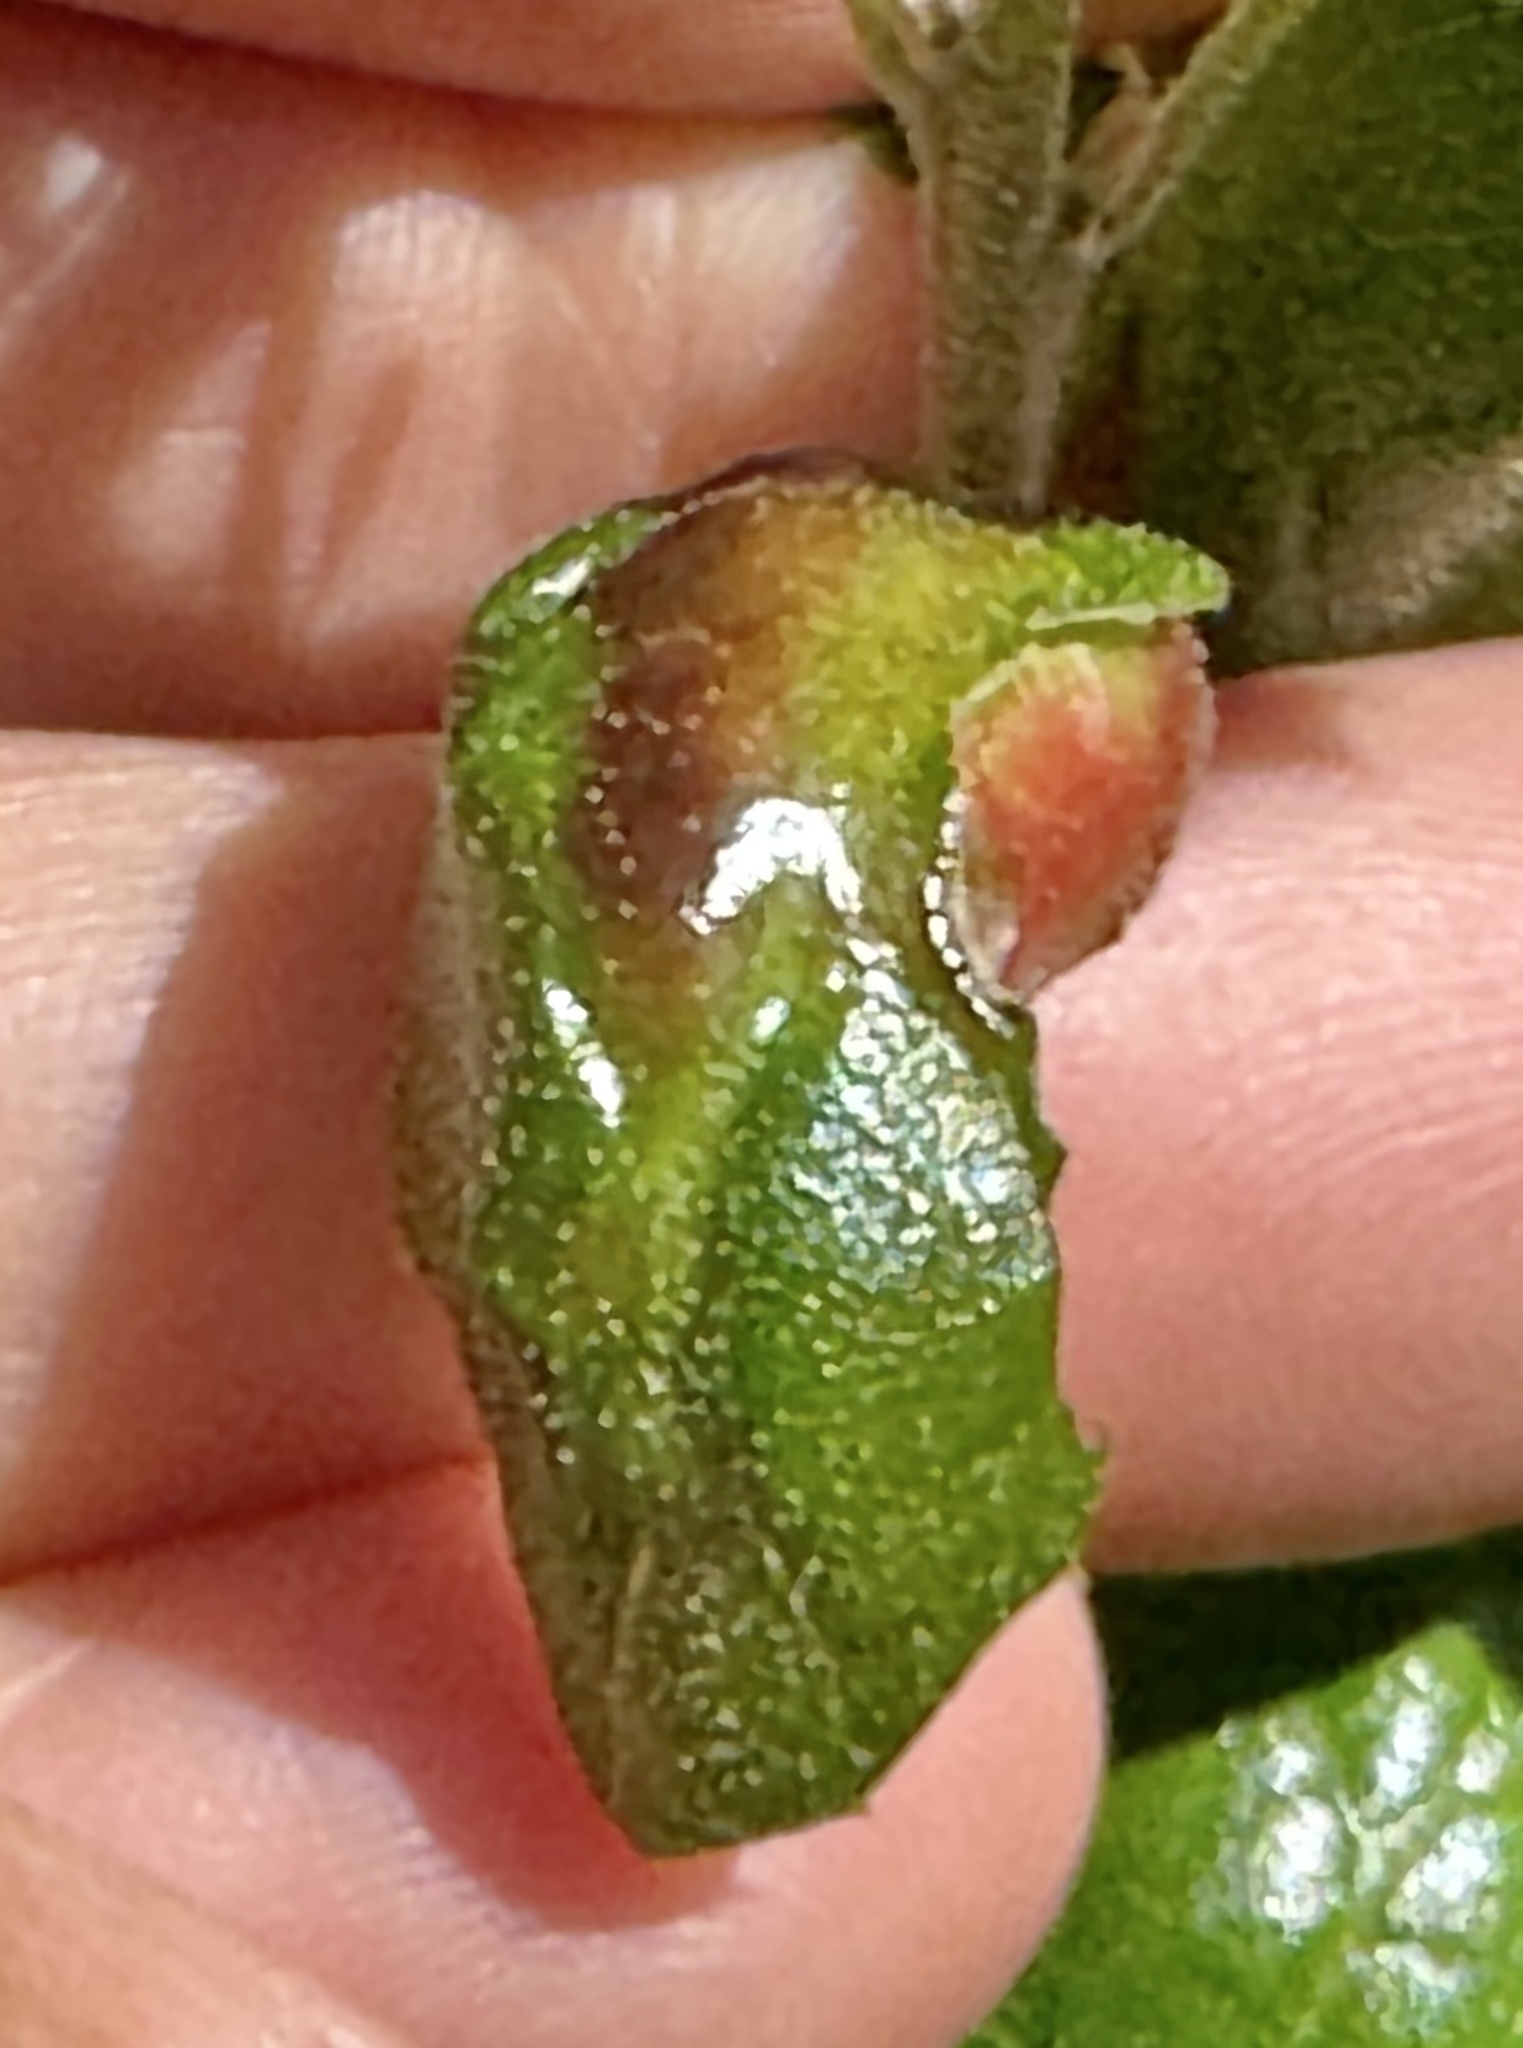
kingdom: Animalia
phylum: Arthropoda
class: Insecta
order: Hymenoptera
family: Cynipidae
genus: Melikaiella
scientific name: Melikaiella
